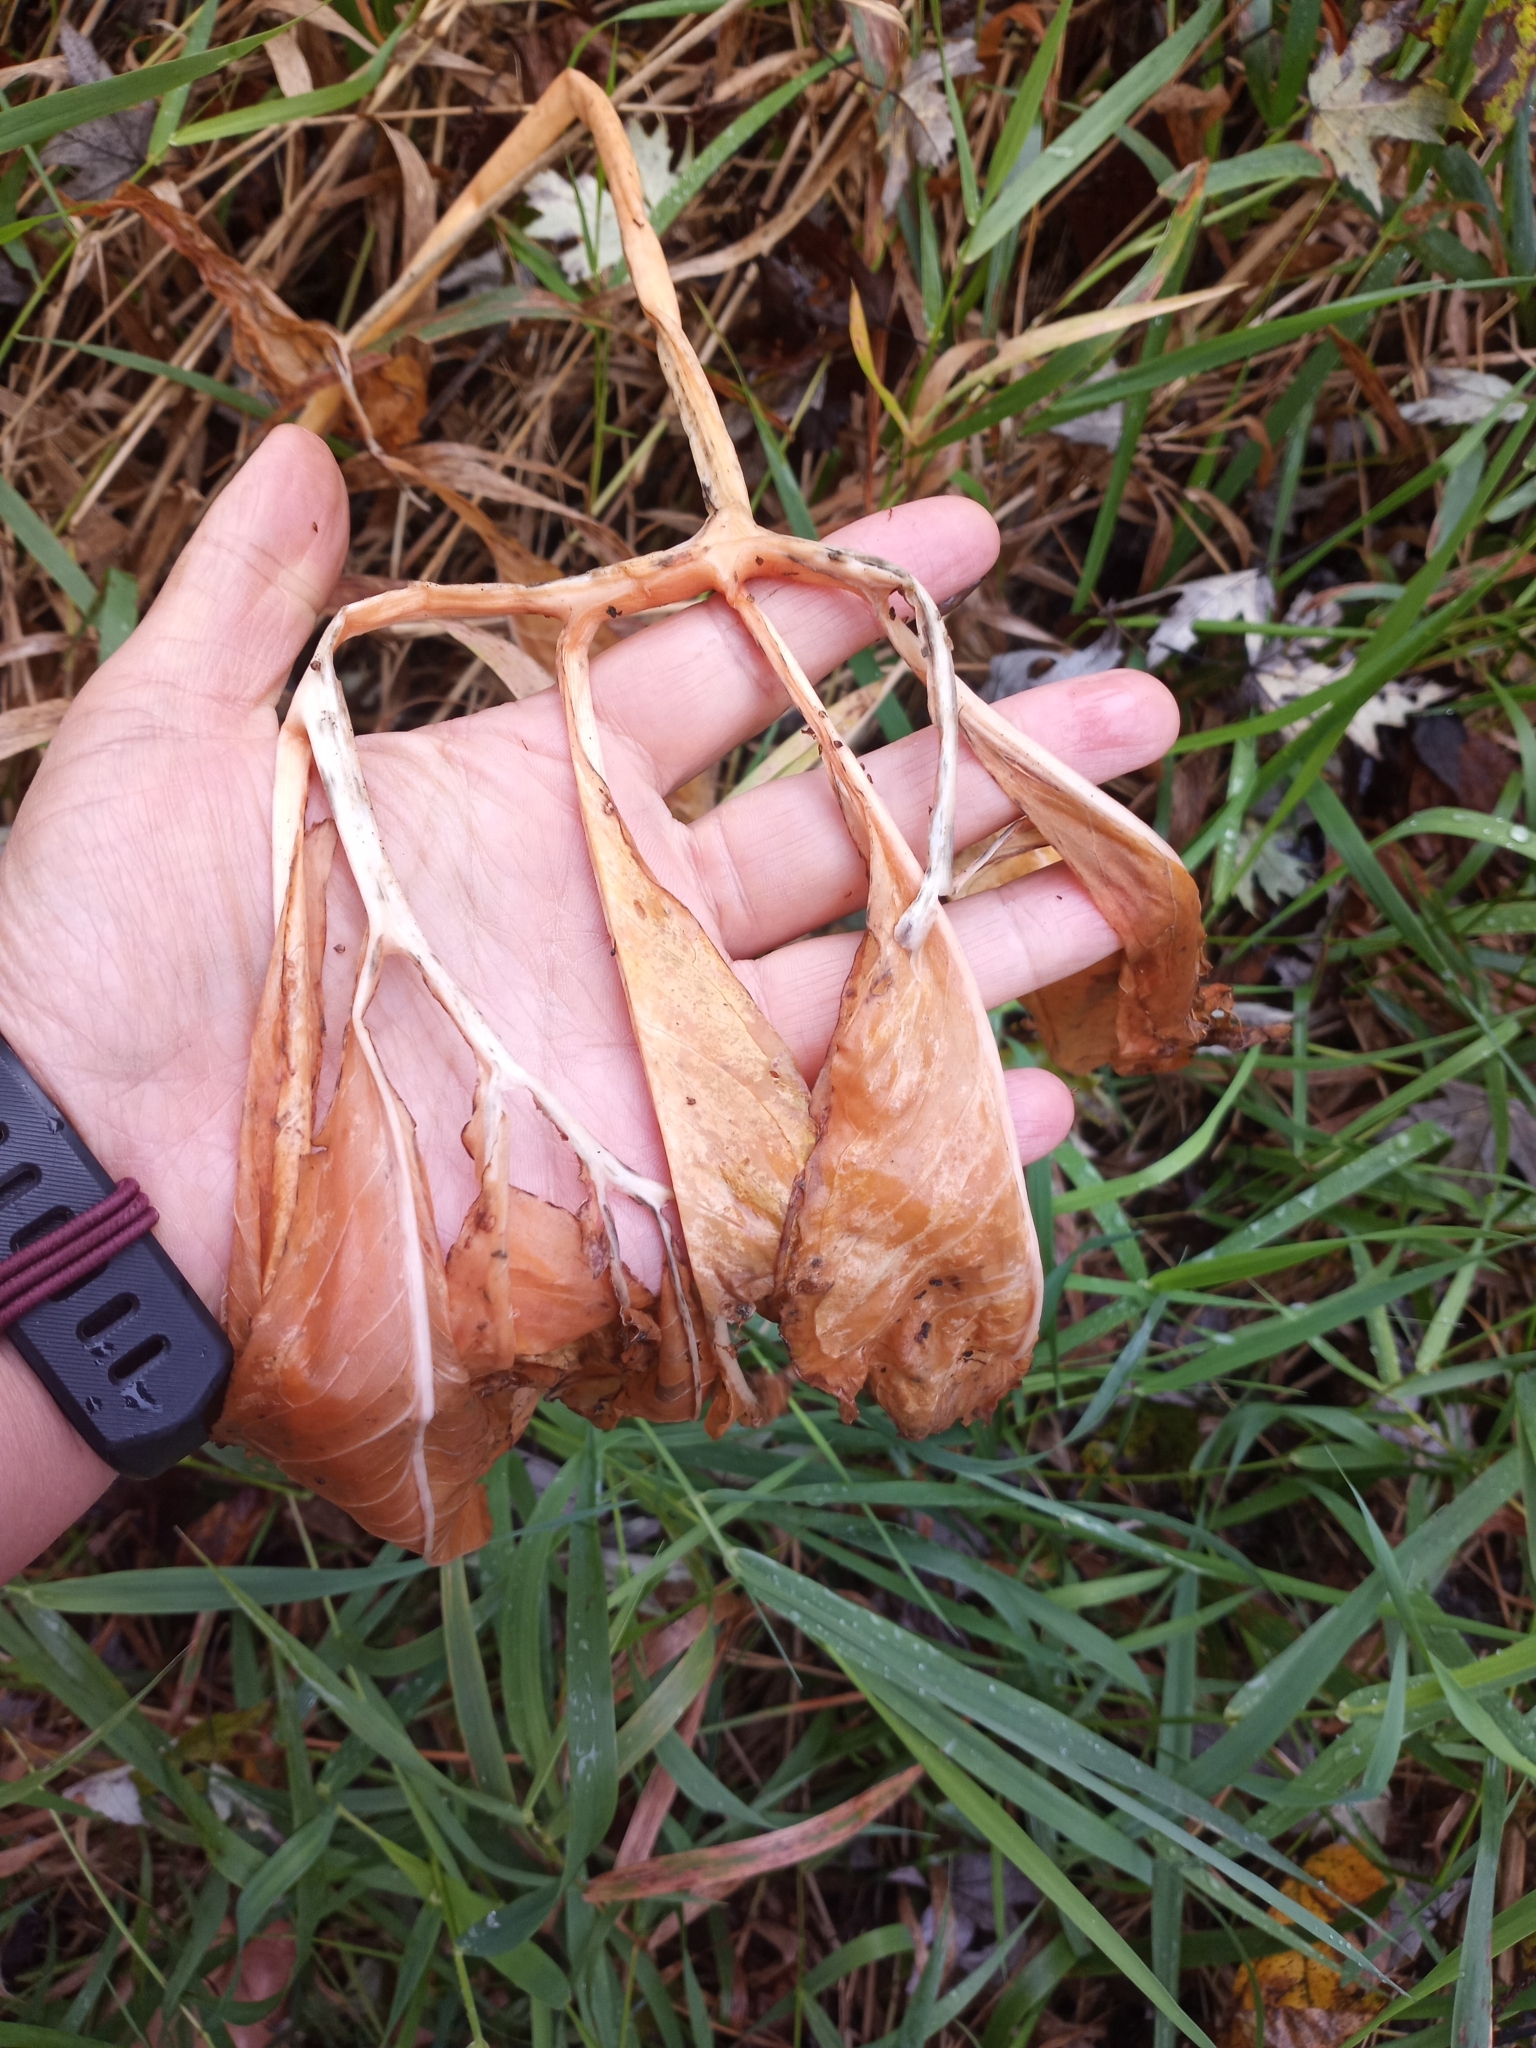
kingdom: Plantae
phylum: Tracheophyta
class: Liliopsida
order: Alismatales
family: Araceae
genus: Arisaema
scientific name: Arisaema dracontium
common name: Dragon-arum
